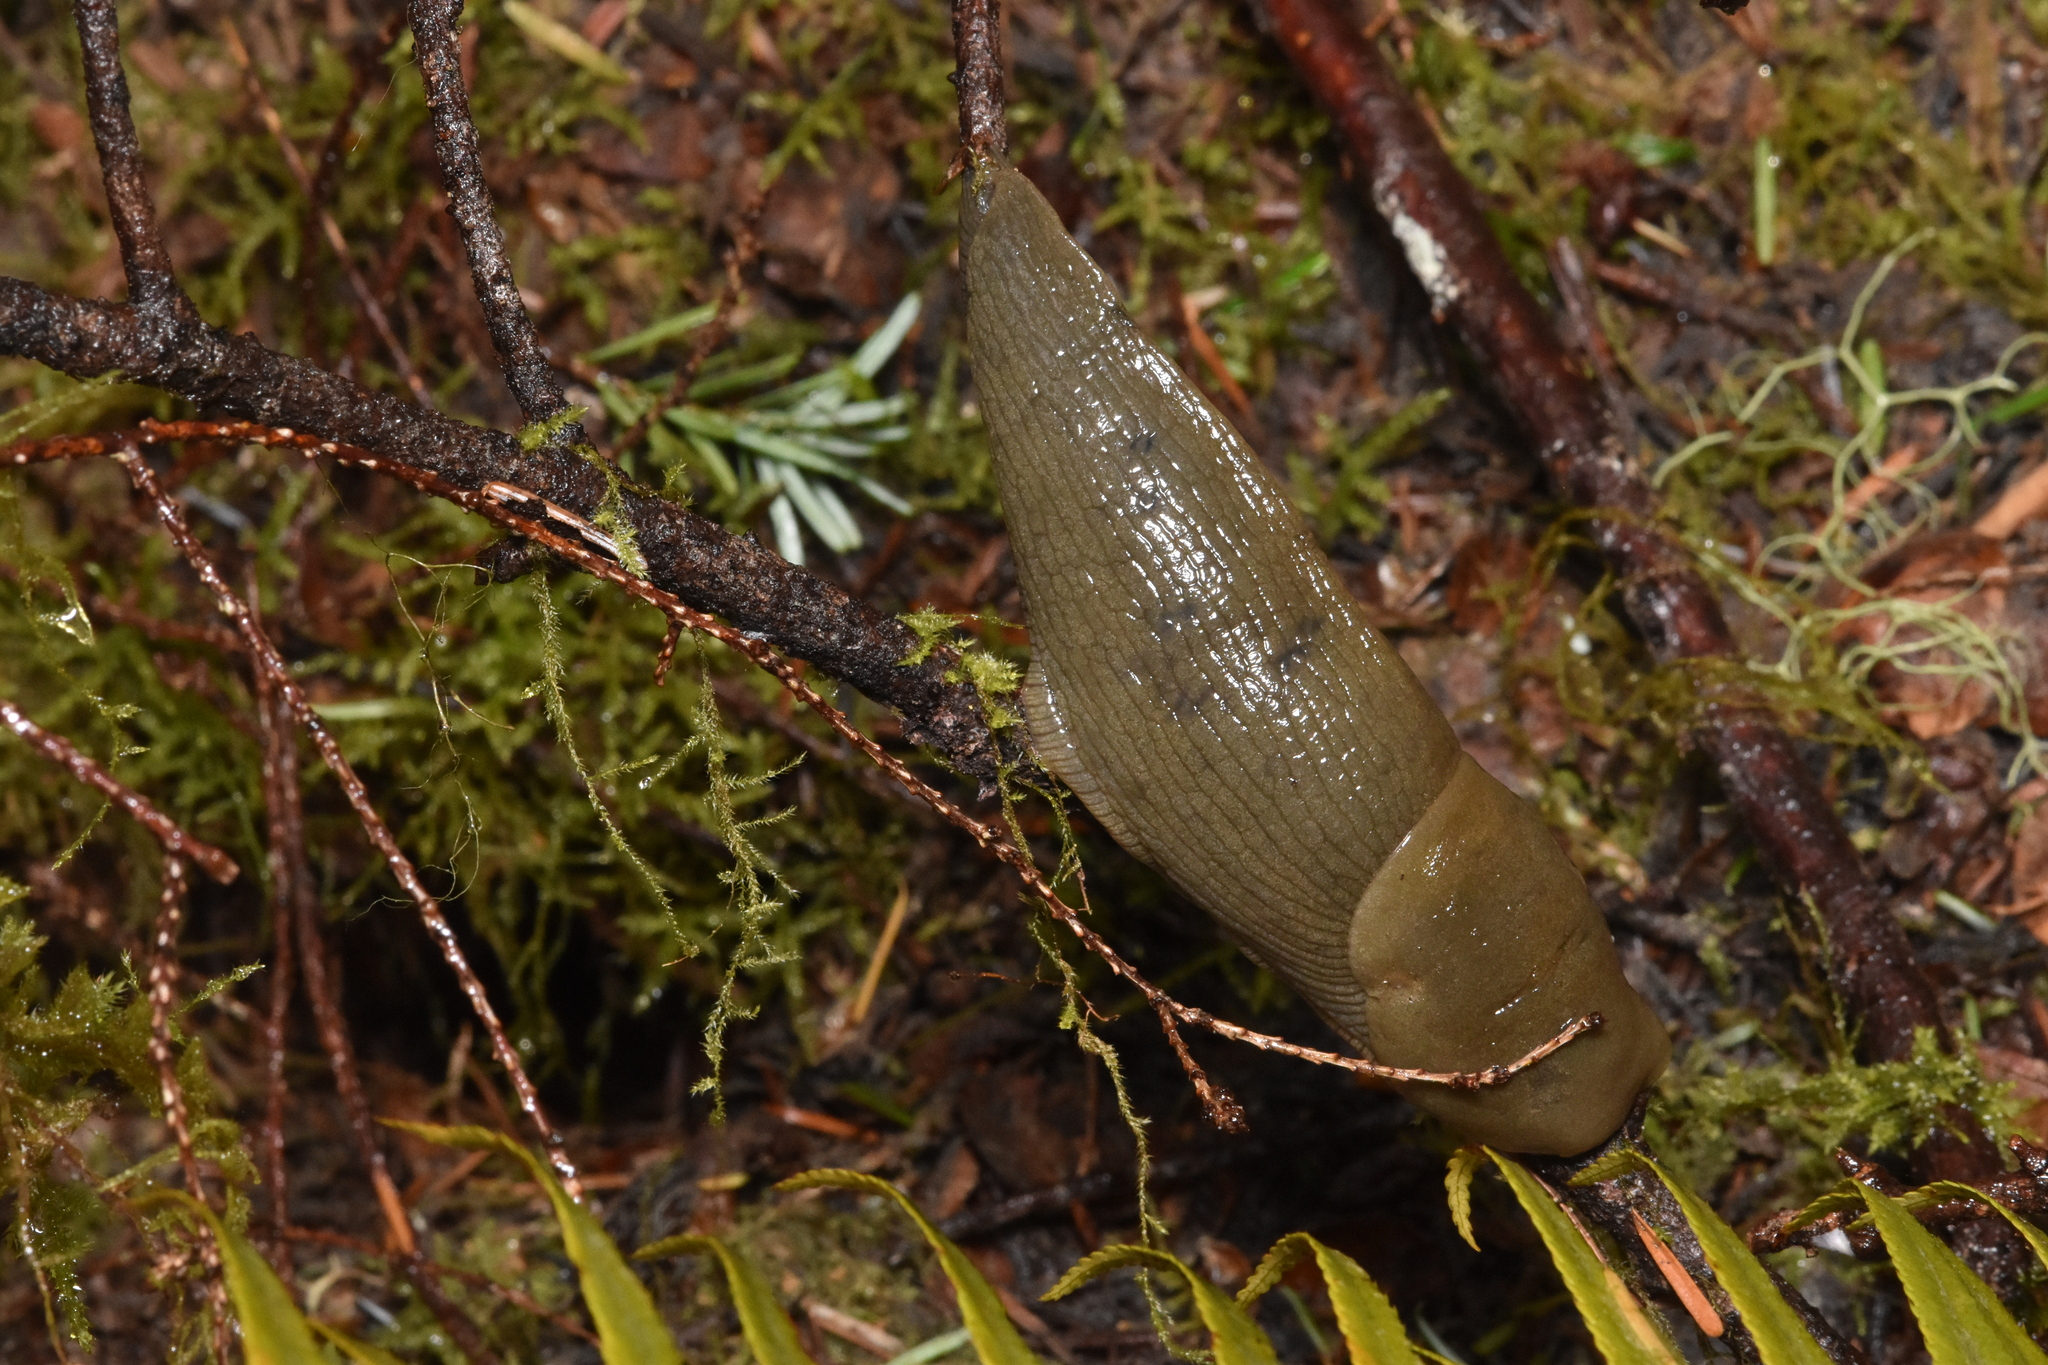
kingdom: Animalia
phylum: Mollusca
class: Gastropoda
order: Stylommatophora
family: Ariolimacidae
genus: Ariolimax
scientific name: Ariolimax columbianus
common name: Pacific banana slug
